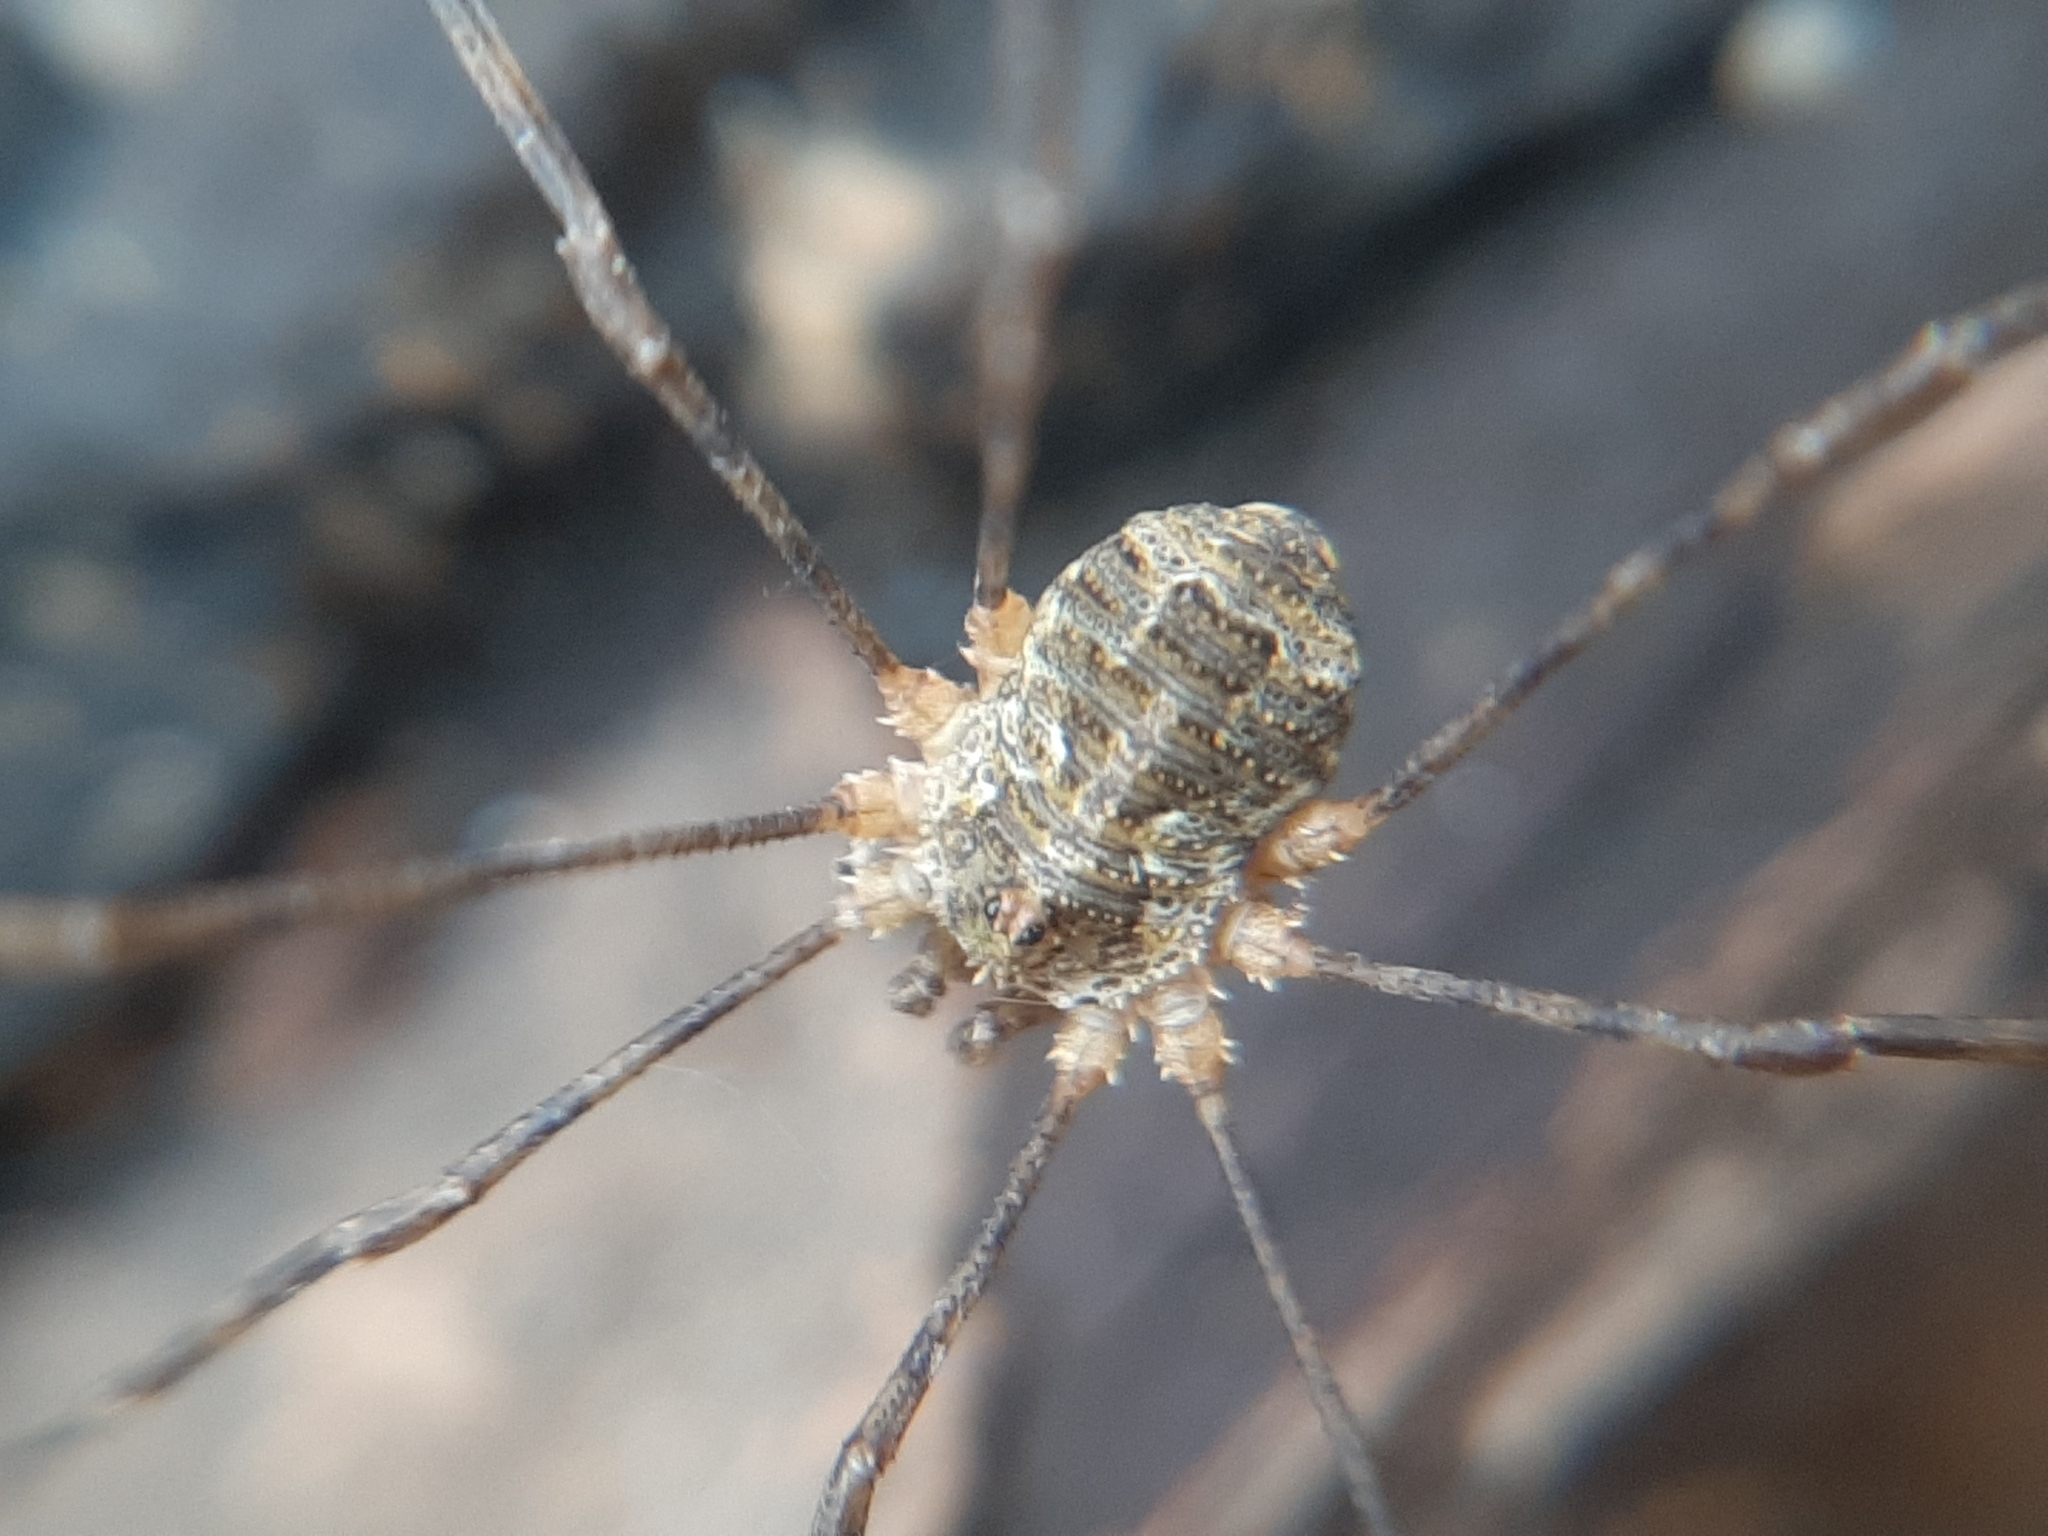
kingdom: Animalia
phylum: Arthropoda
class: Arachnida
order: Opiliones
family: Phalangiidae
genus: Lacinius
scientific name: Lacinius dentiger
